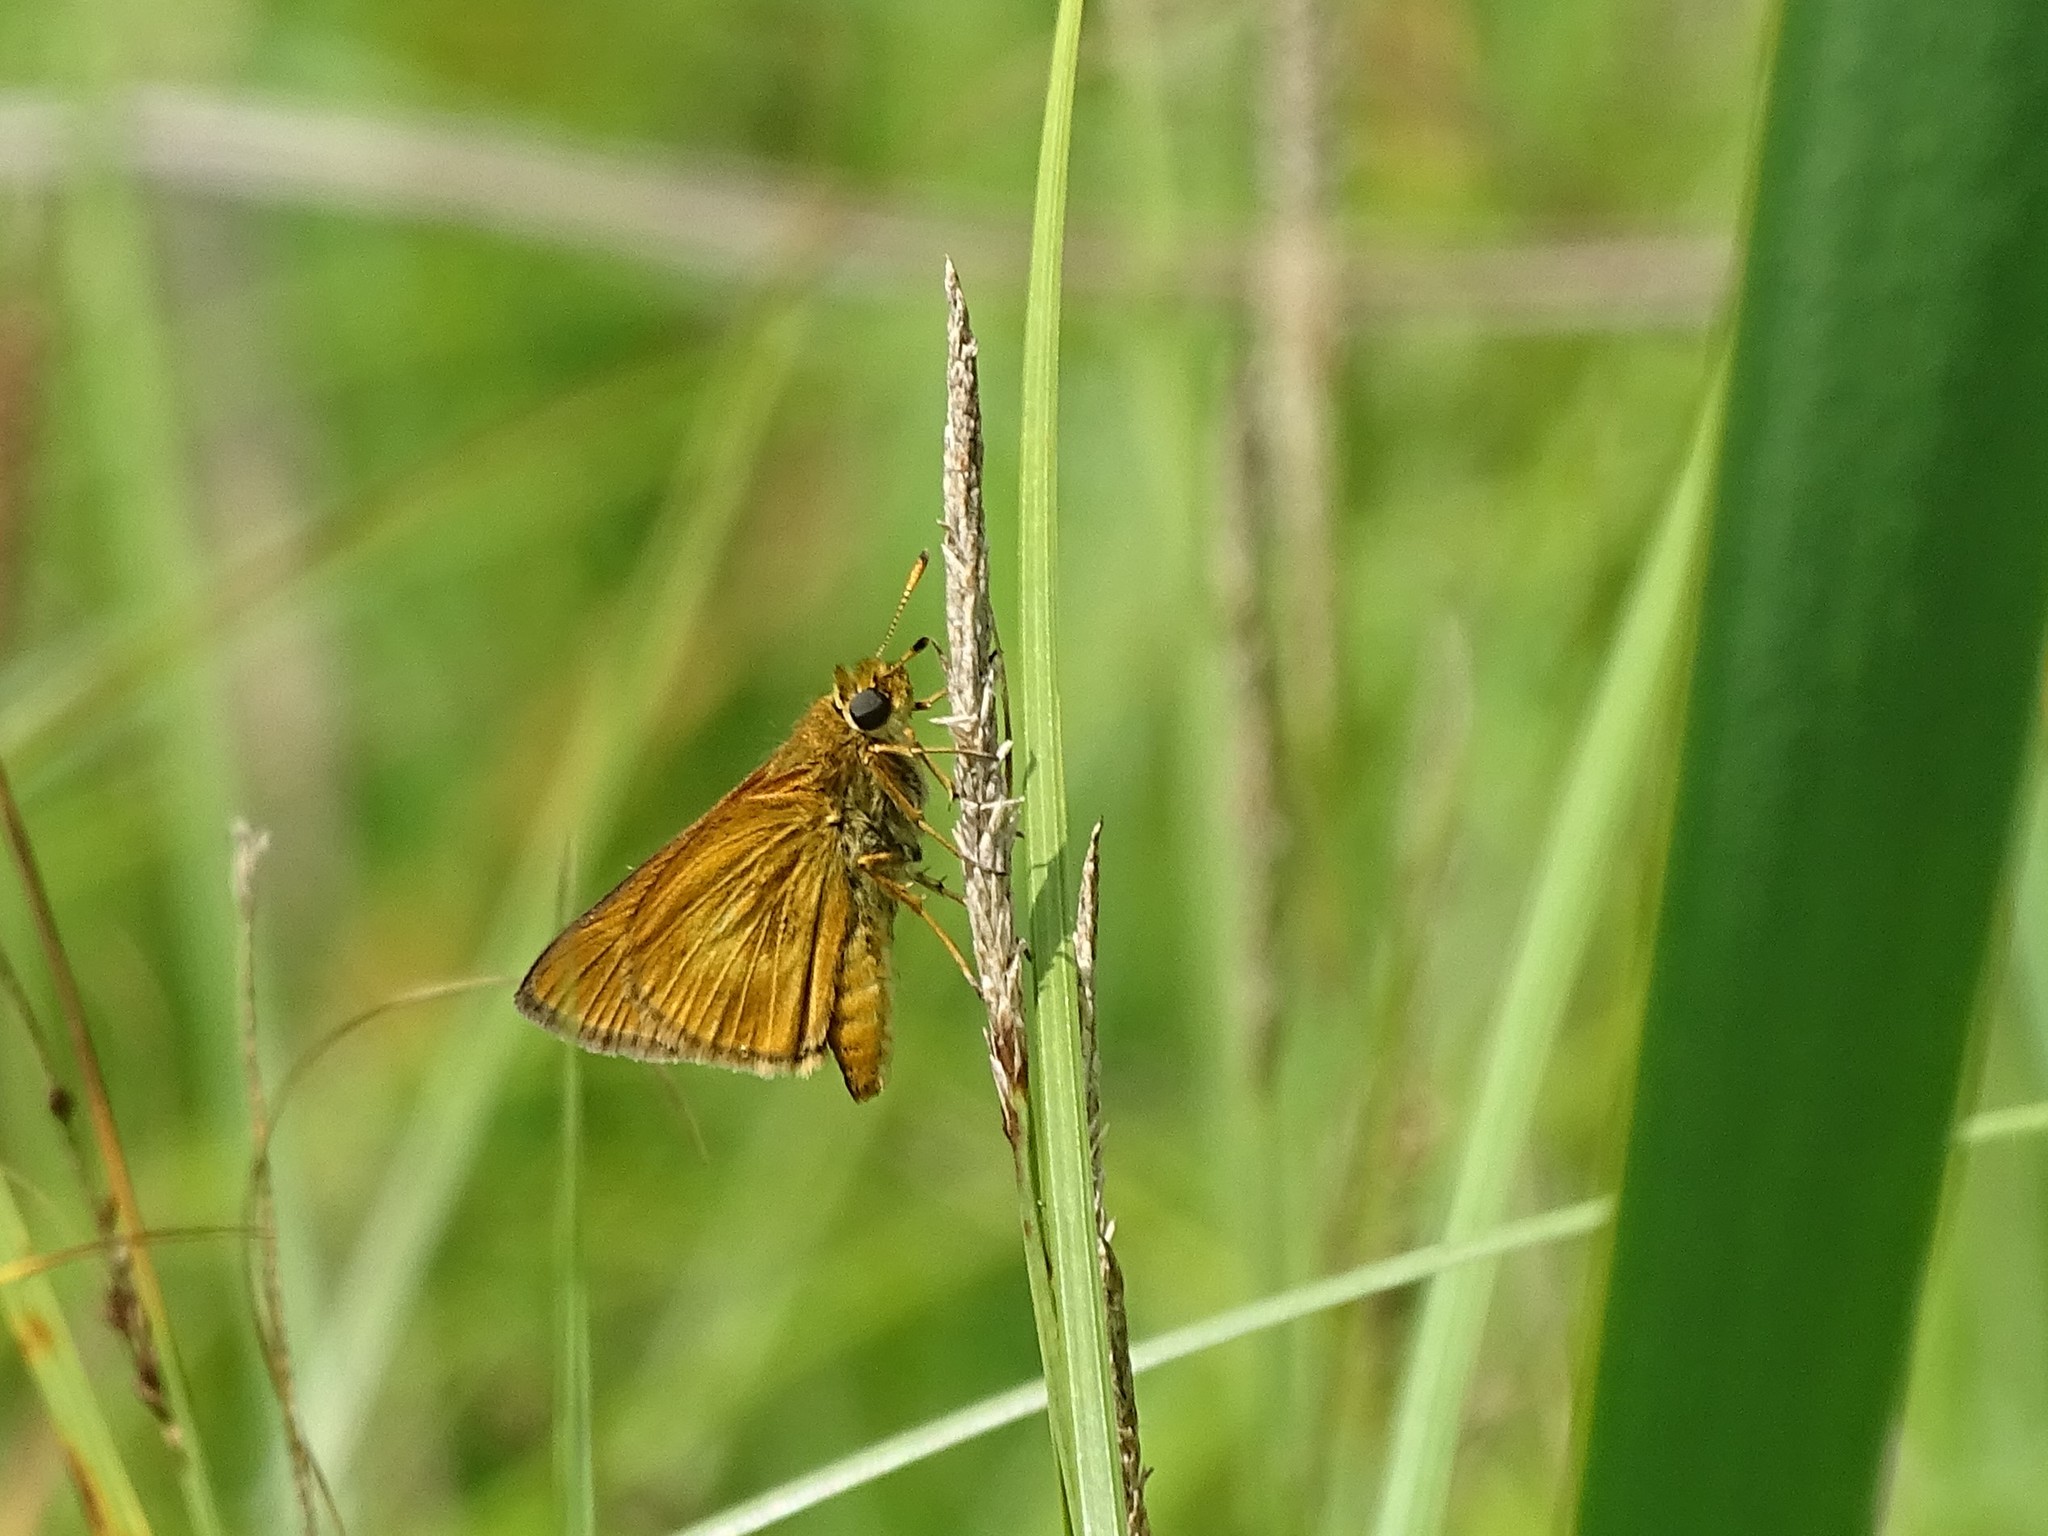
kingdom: Animalia
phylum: Arthropoda
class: Insecta
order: Lepidoptera
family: Hesperiidae
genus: Euphyes
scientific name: Euphyes conspicua
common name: Black dash
